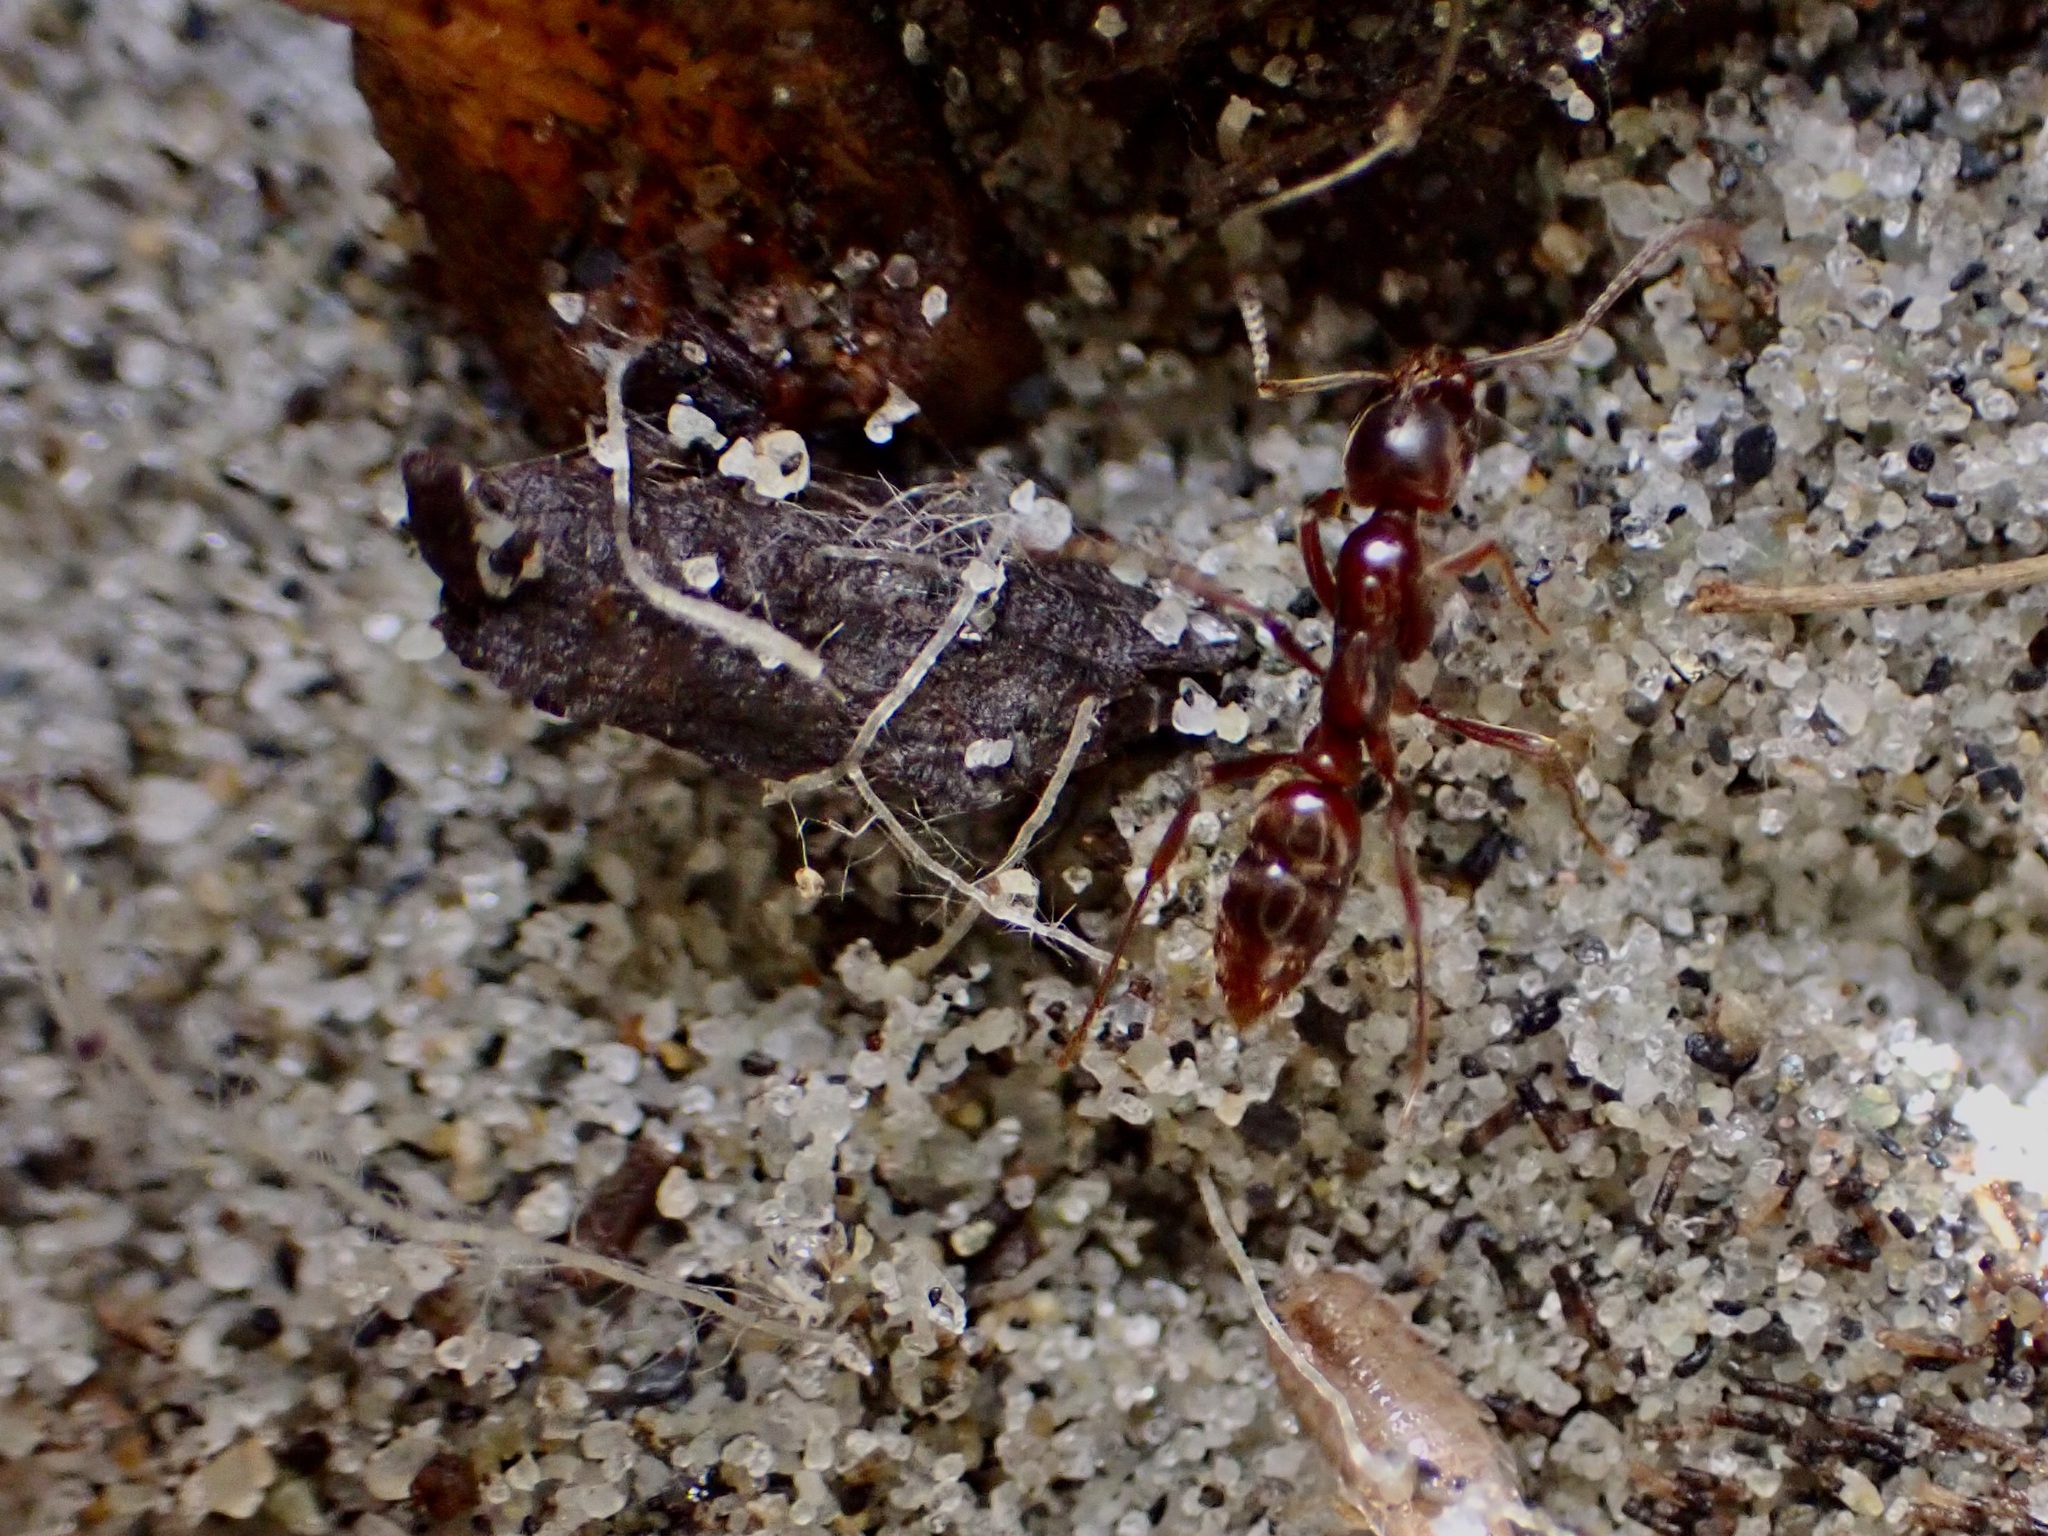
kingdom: Animalia
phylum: Arthropoda
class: Insecta
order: Hymenoptera
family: Formicidae
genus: Austroponera
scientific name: Austroponera
